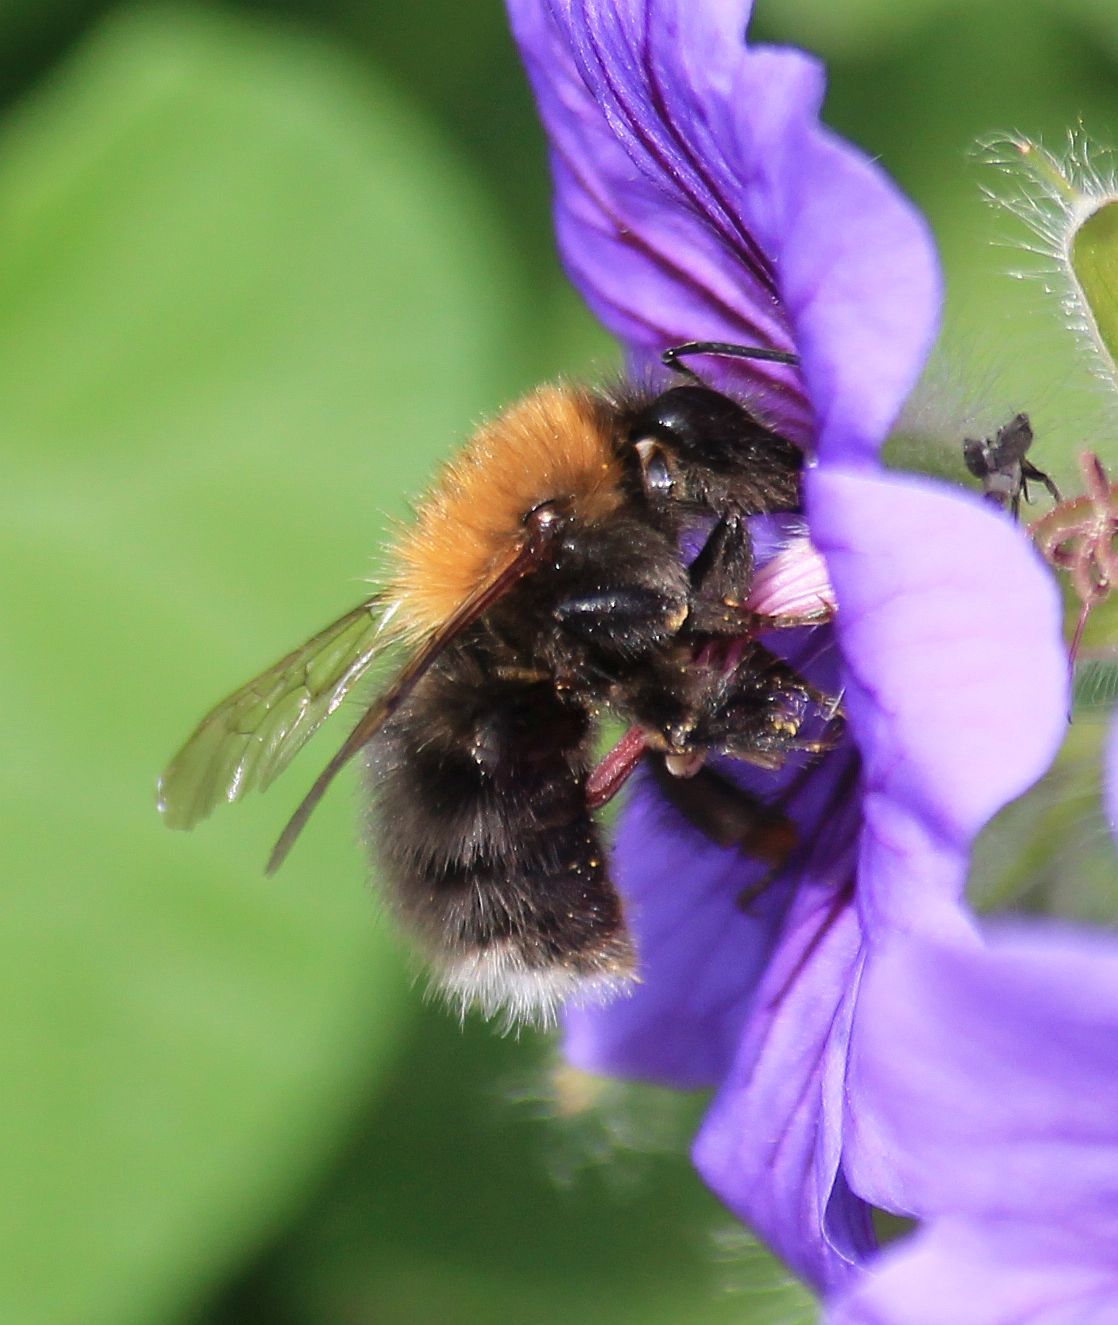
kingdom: Animalia
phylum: Arthropoda
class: Insecta
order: Hymenoptera
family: Apidae
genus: Bombus
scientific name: Bombus hypnorum
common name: New garden bumblebee
